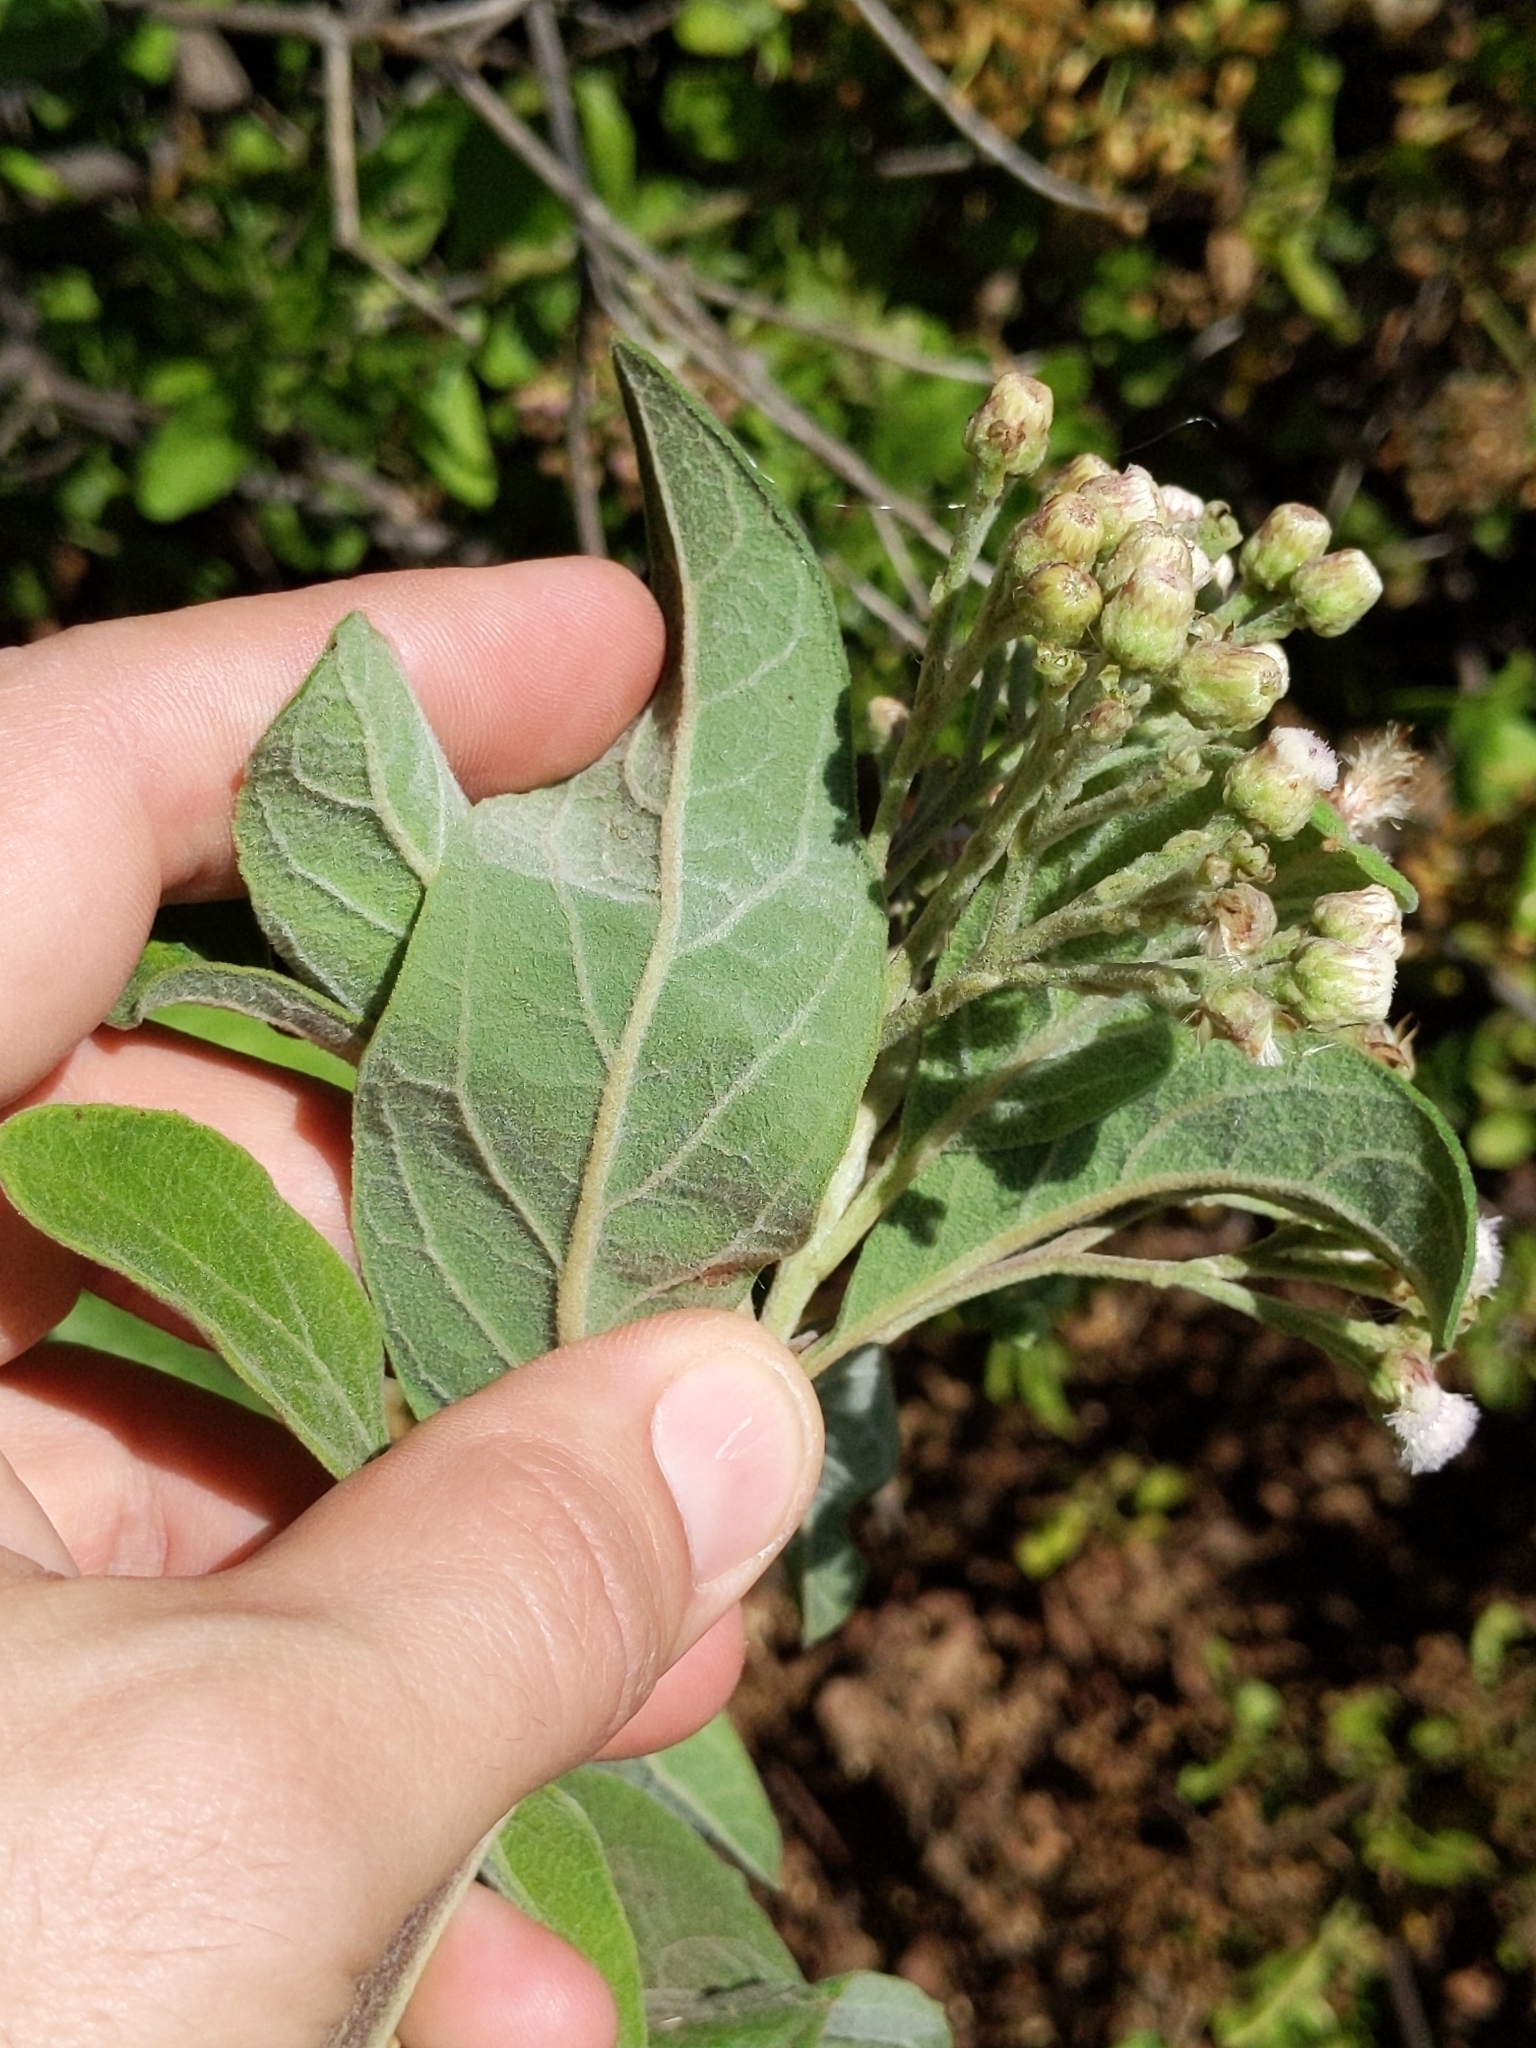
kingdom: Plantae
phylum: Tracheophyta
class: Magnoliopsida
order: Asterales
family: Asteraceae
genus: Pluchea
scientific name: Pluchea carolinensis
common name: Marsh fleabane
